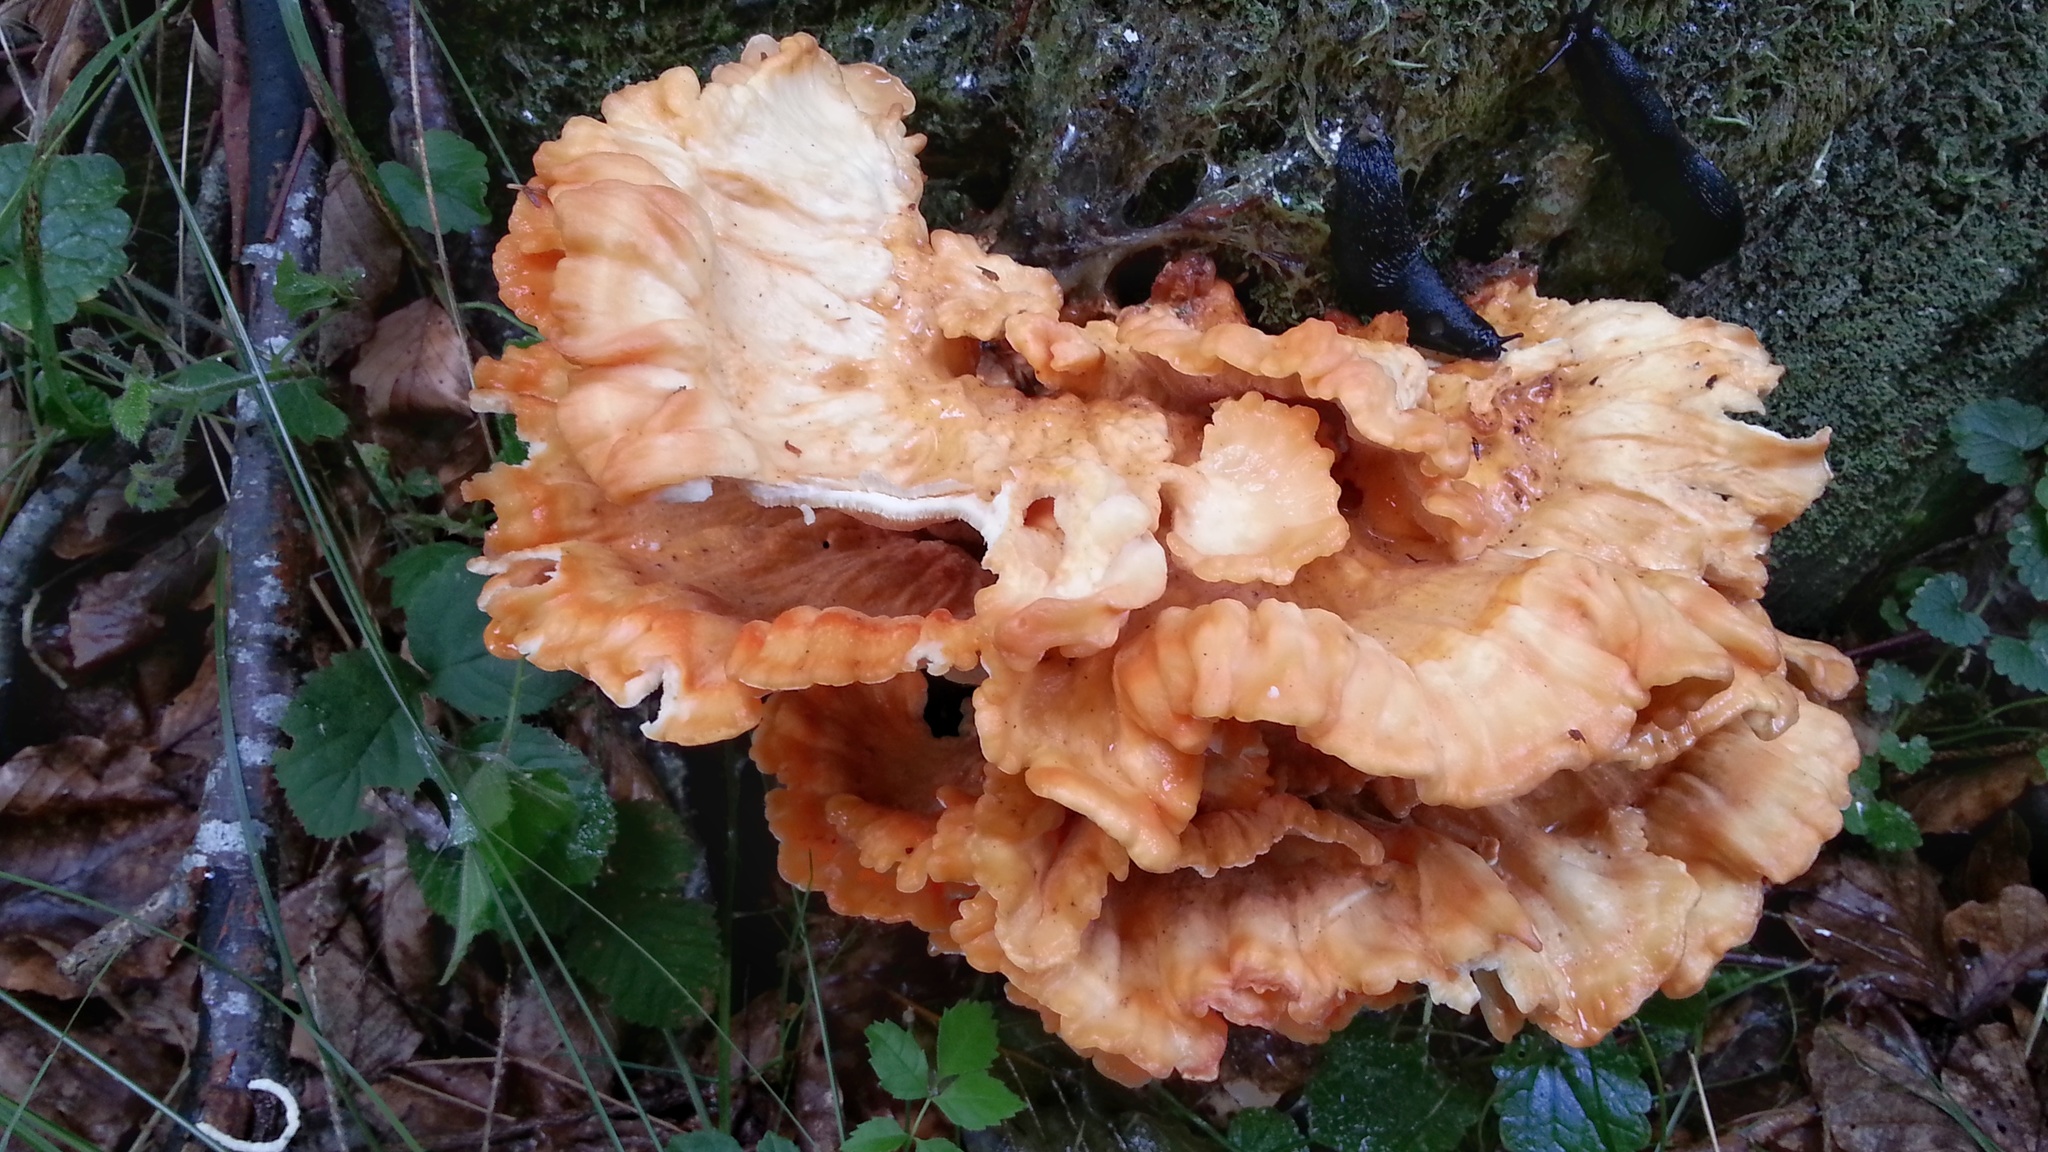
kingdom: Fungi
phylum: Basidiomycota
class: Agaricomycetes
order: Polyporales
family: Laetiporaceae
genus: Laetiporus
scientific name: Laetiporus sulphureus
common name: Chicken of the woods
